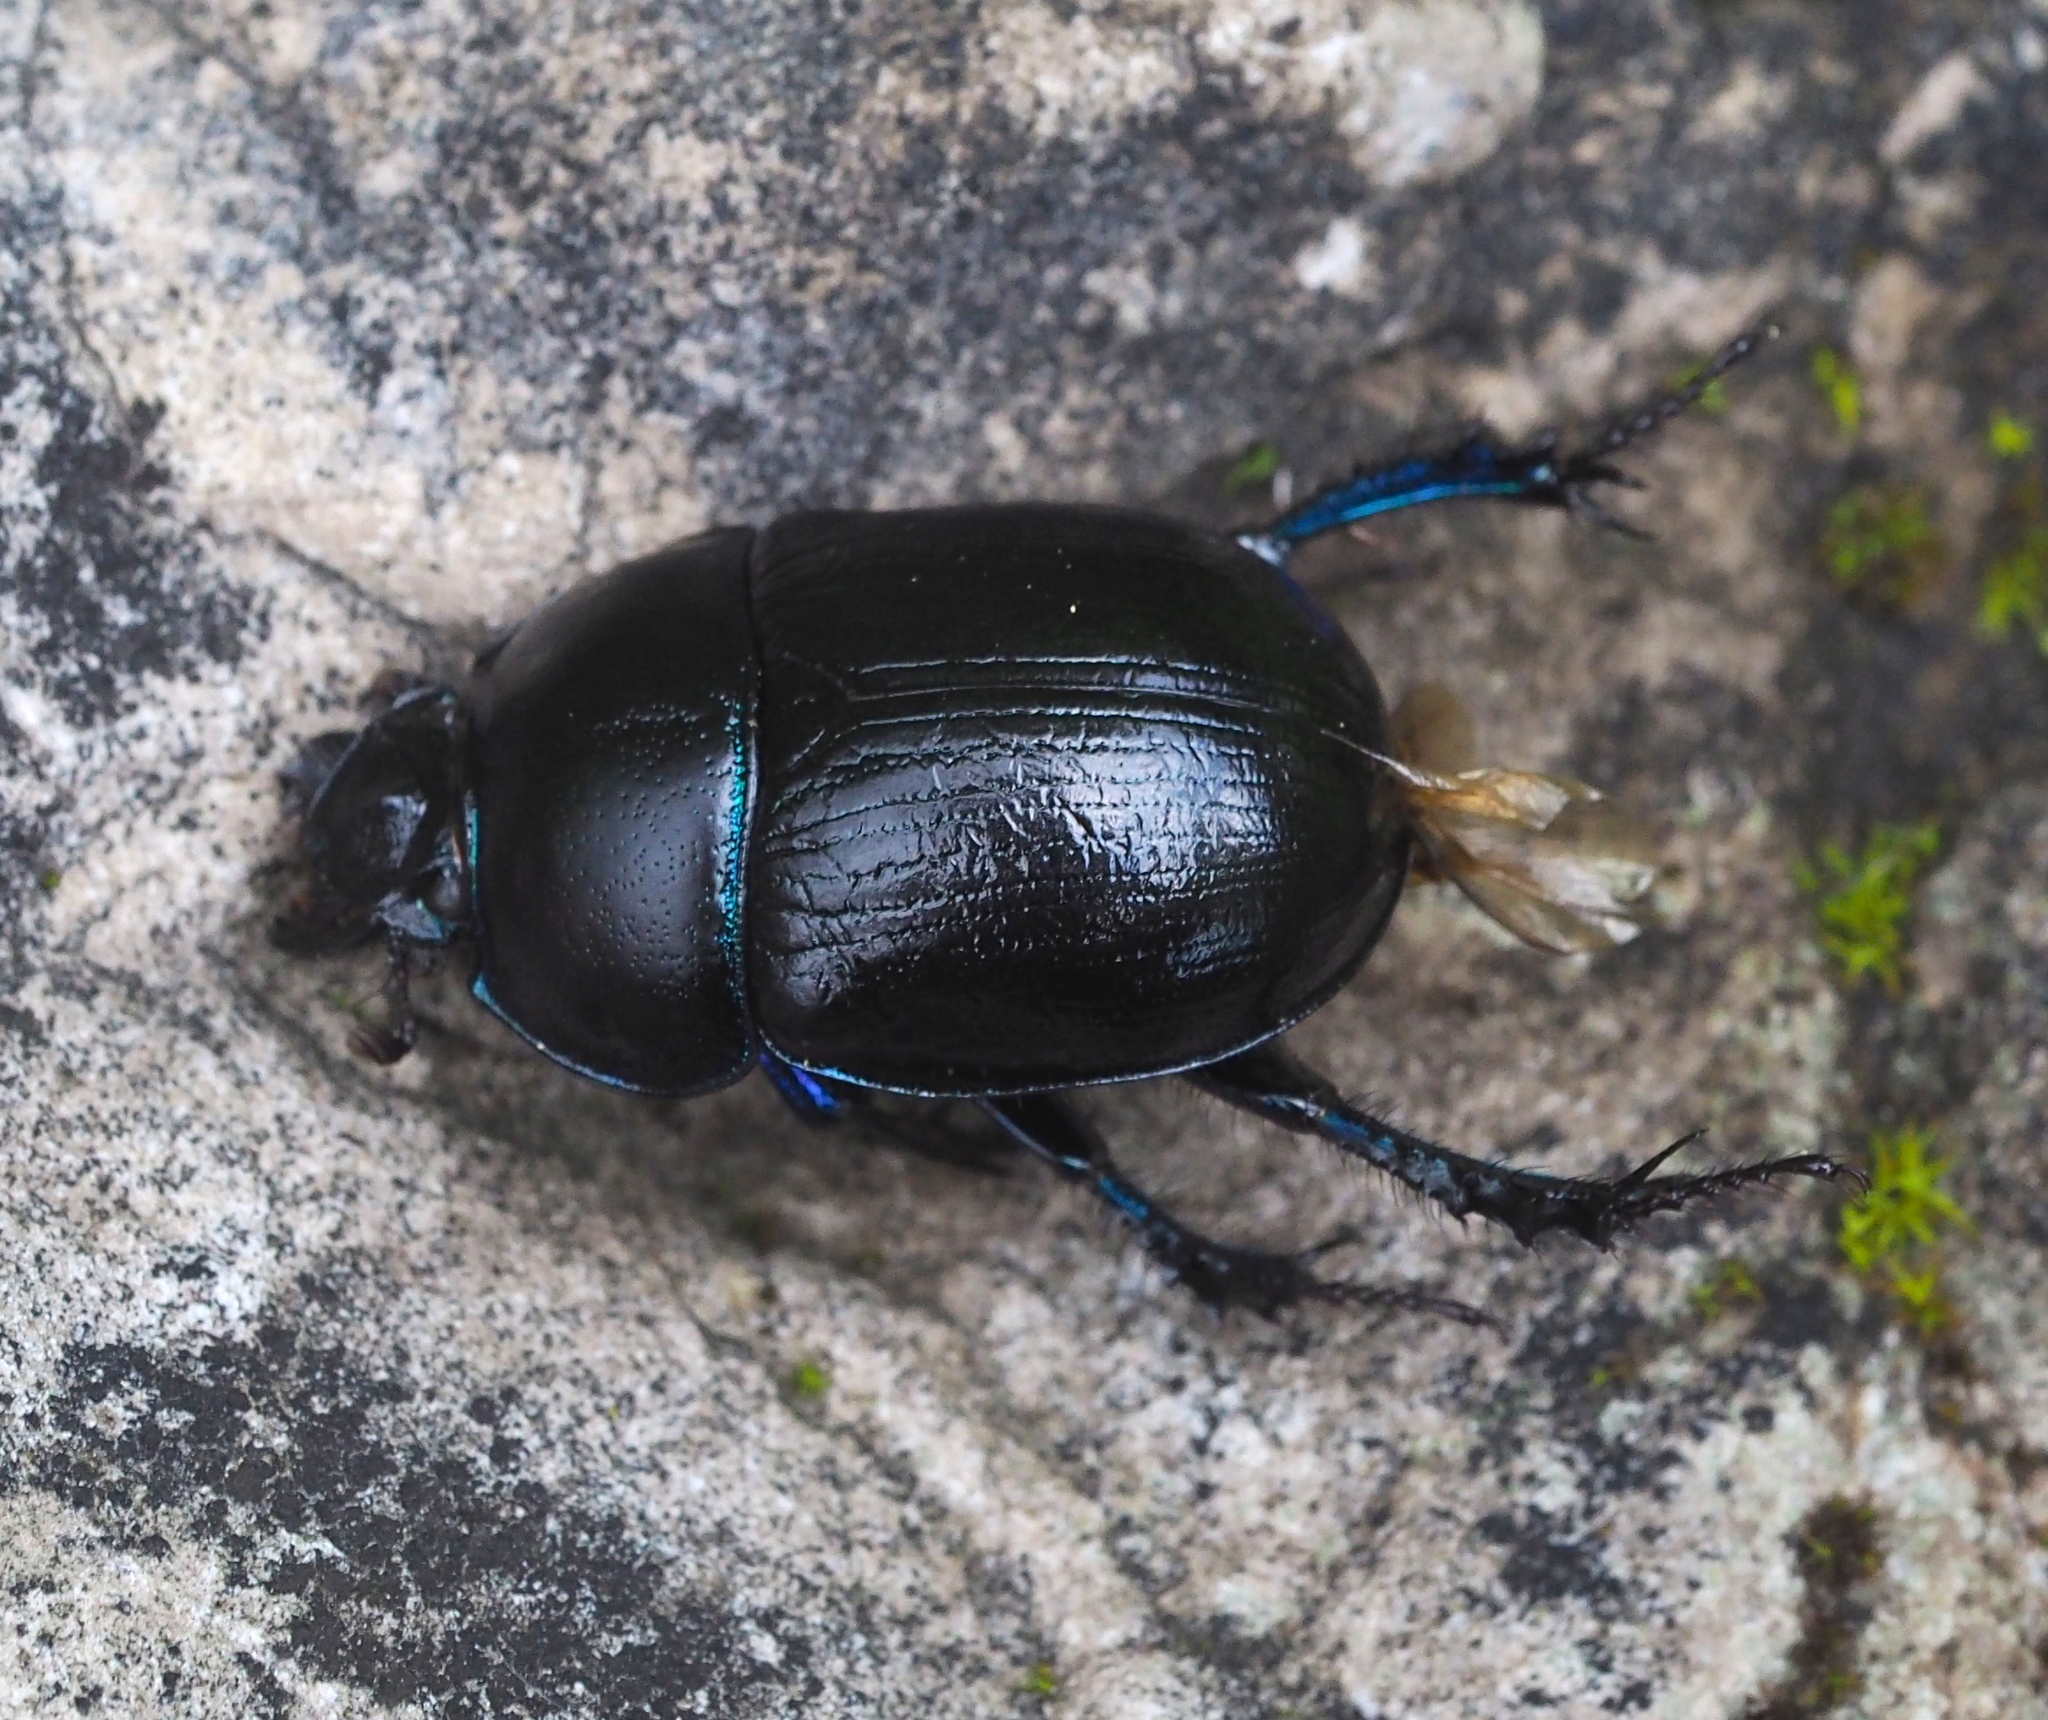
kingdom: Animalia
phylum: Arthropoda
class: Insecta
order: Coleoptera
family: Geotrupidae
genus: Anoplotrupes
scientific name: Anoplotrupes stercorosus
